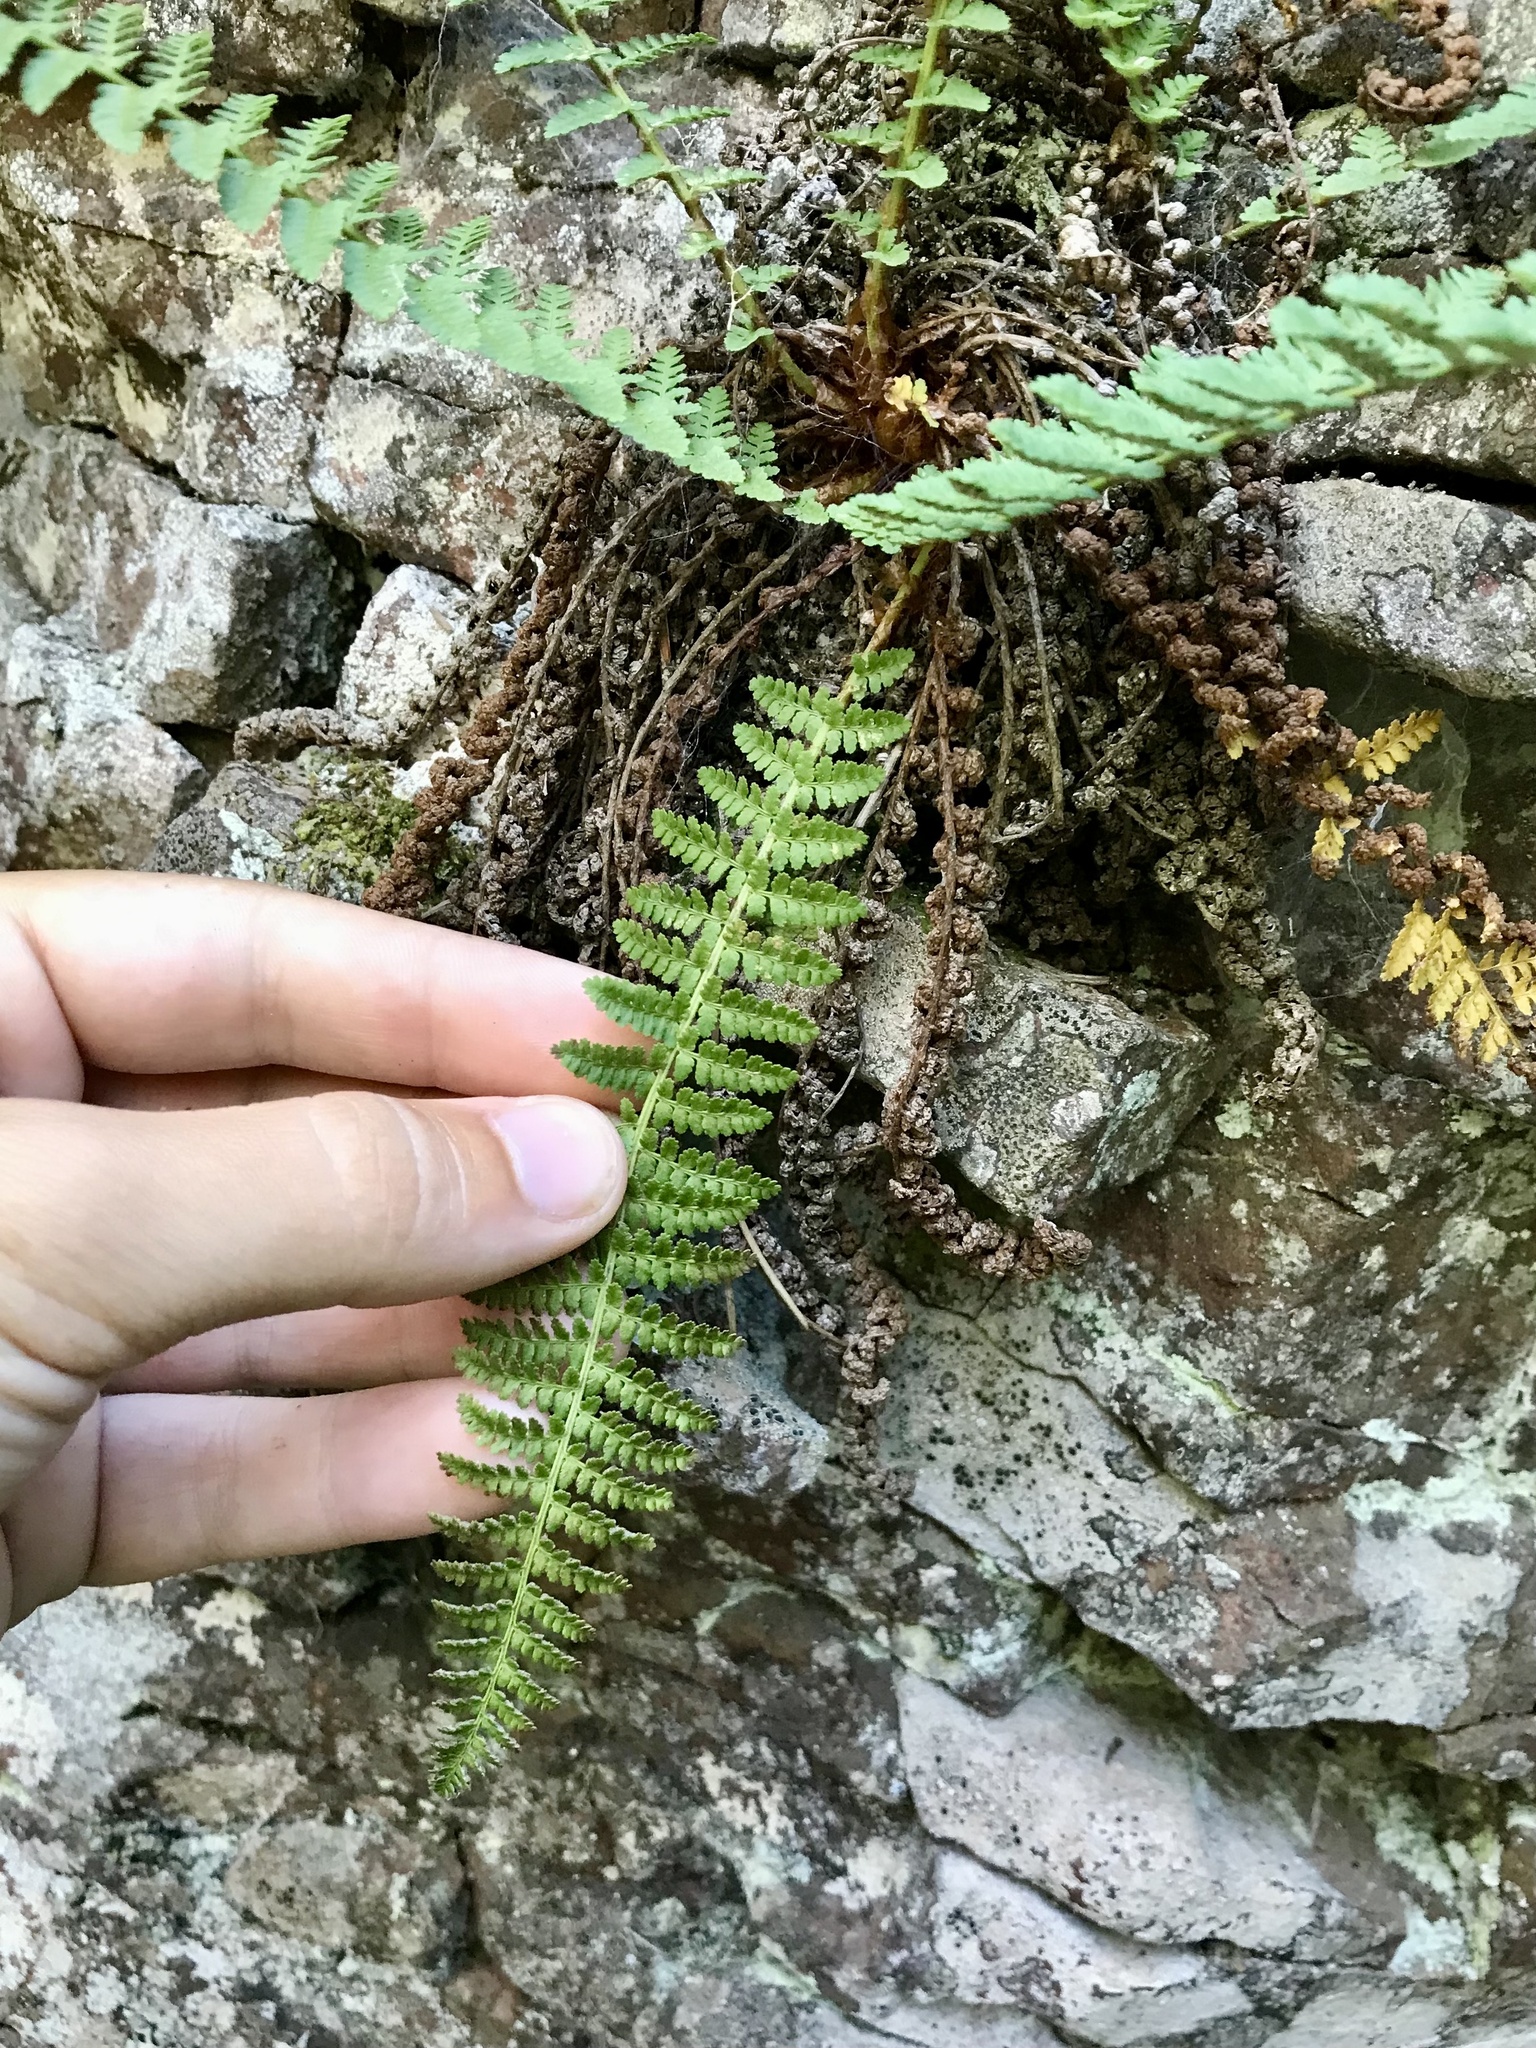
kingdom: Plantae
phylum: Tracheophyta
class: Polypodiopsida
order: Polypodiales
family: Dryopteridaceae
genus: Dryopteris
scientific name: Dryopteris fragrans
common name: Fragrant wood fern
